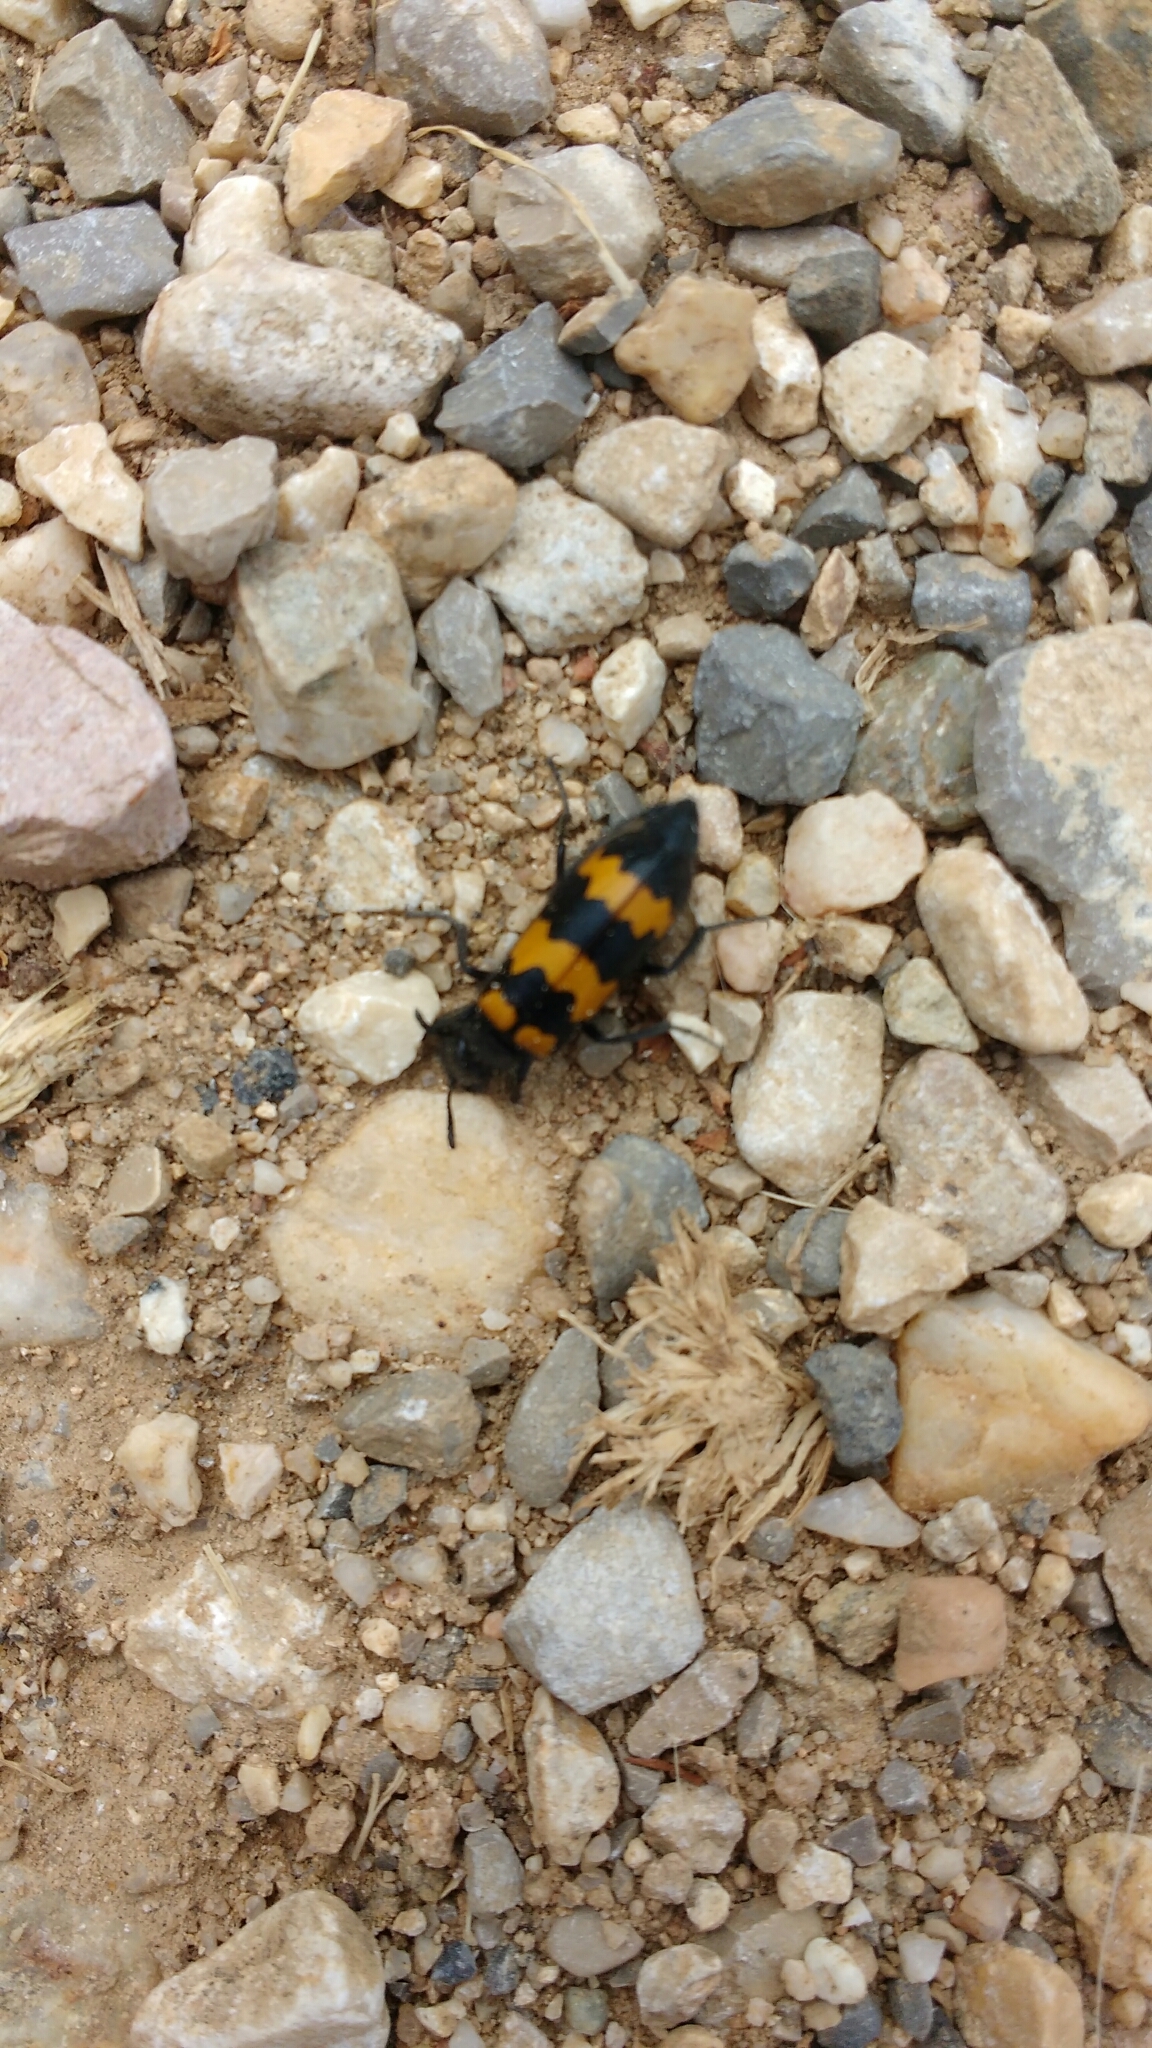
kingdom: Animalia
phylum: Arthropoda
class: Insecta
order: Coleoptera
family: Meloidae
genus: Mylabris
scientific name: Mylabris variabilis
